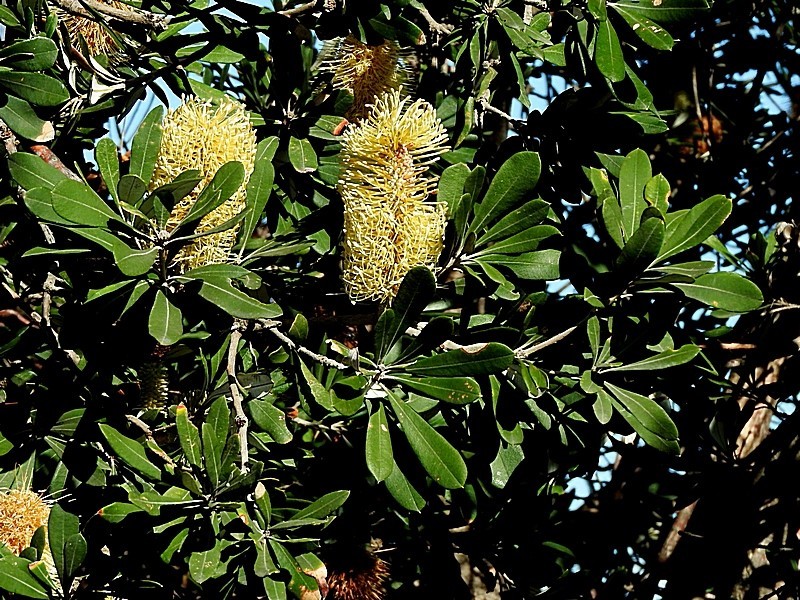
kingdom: Plantae
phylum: Tracheophyta
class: Magnoliopsida
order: Proteales
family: Proteaceae
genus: Banksia
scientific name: Banksia integrifolia
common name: White-honeysuckle
